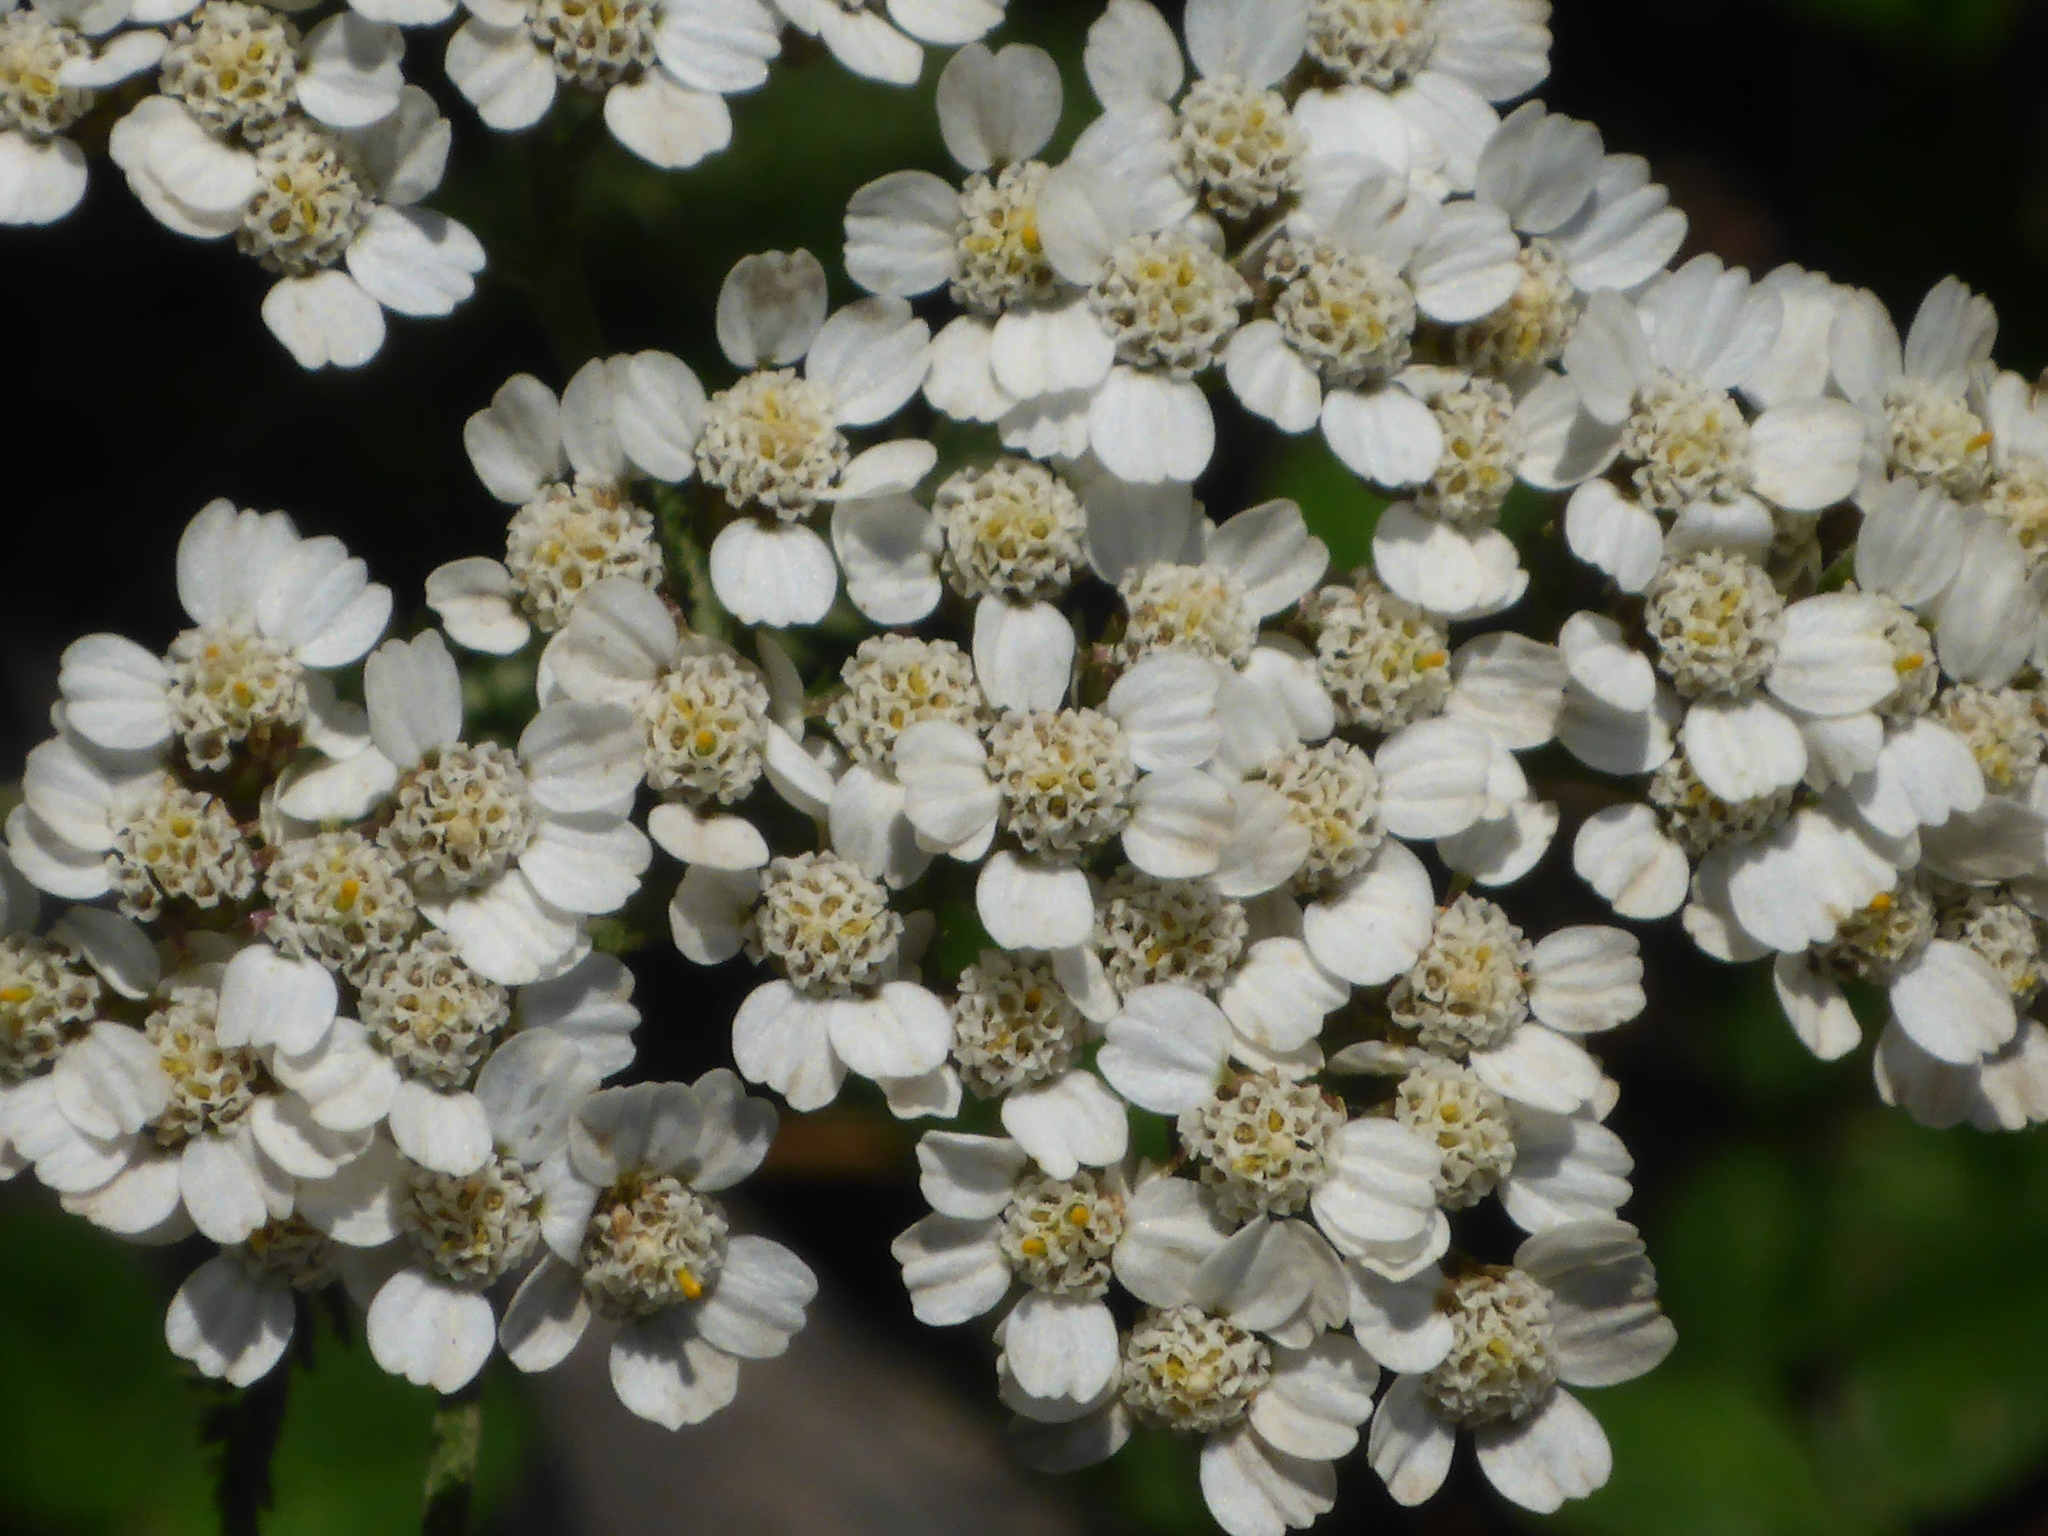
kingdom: Plantae
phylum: Tracheophyta
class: Magnoliopsida
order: Asterales
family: Asteraceae
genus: Achillea
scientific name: Achillea millefolium
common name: Yarrow
